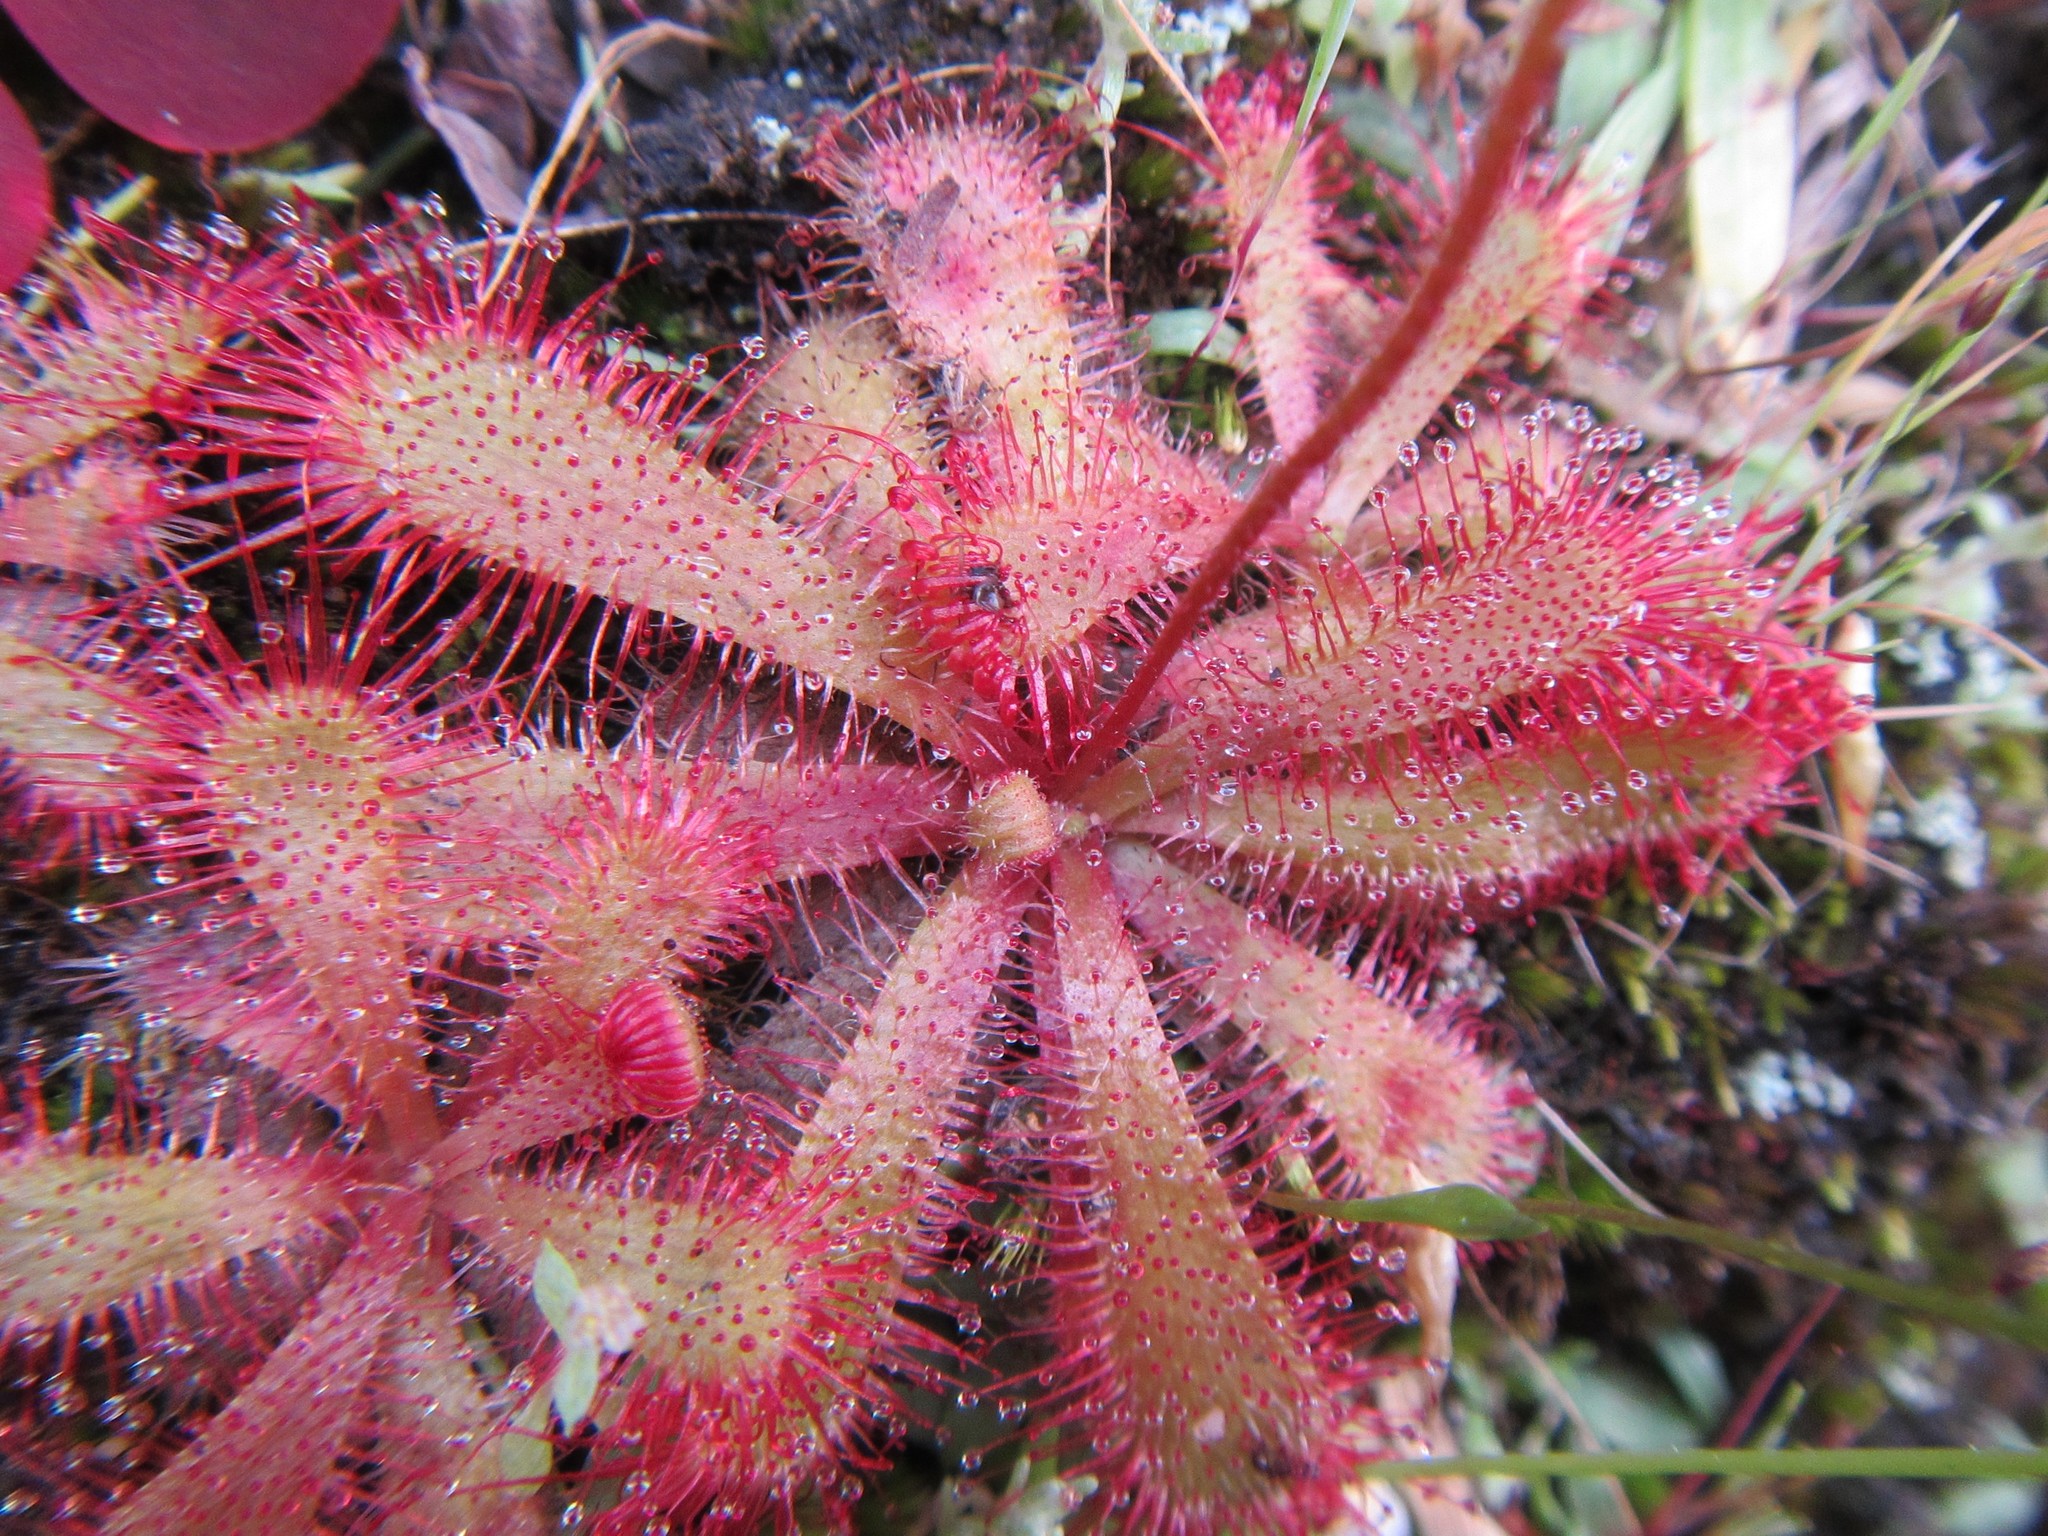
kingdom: Plantae
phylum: Tracheophyta
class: Magnoliopsida
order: Caryophyllales
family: Droseraceae
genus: Drosera
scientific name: Drosera trinervia
